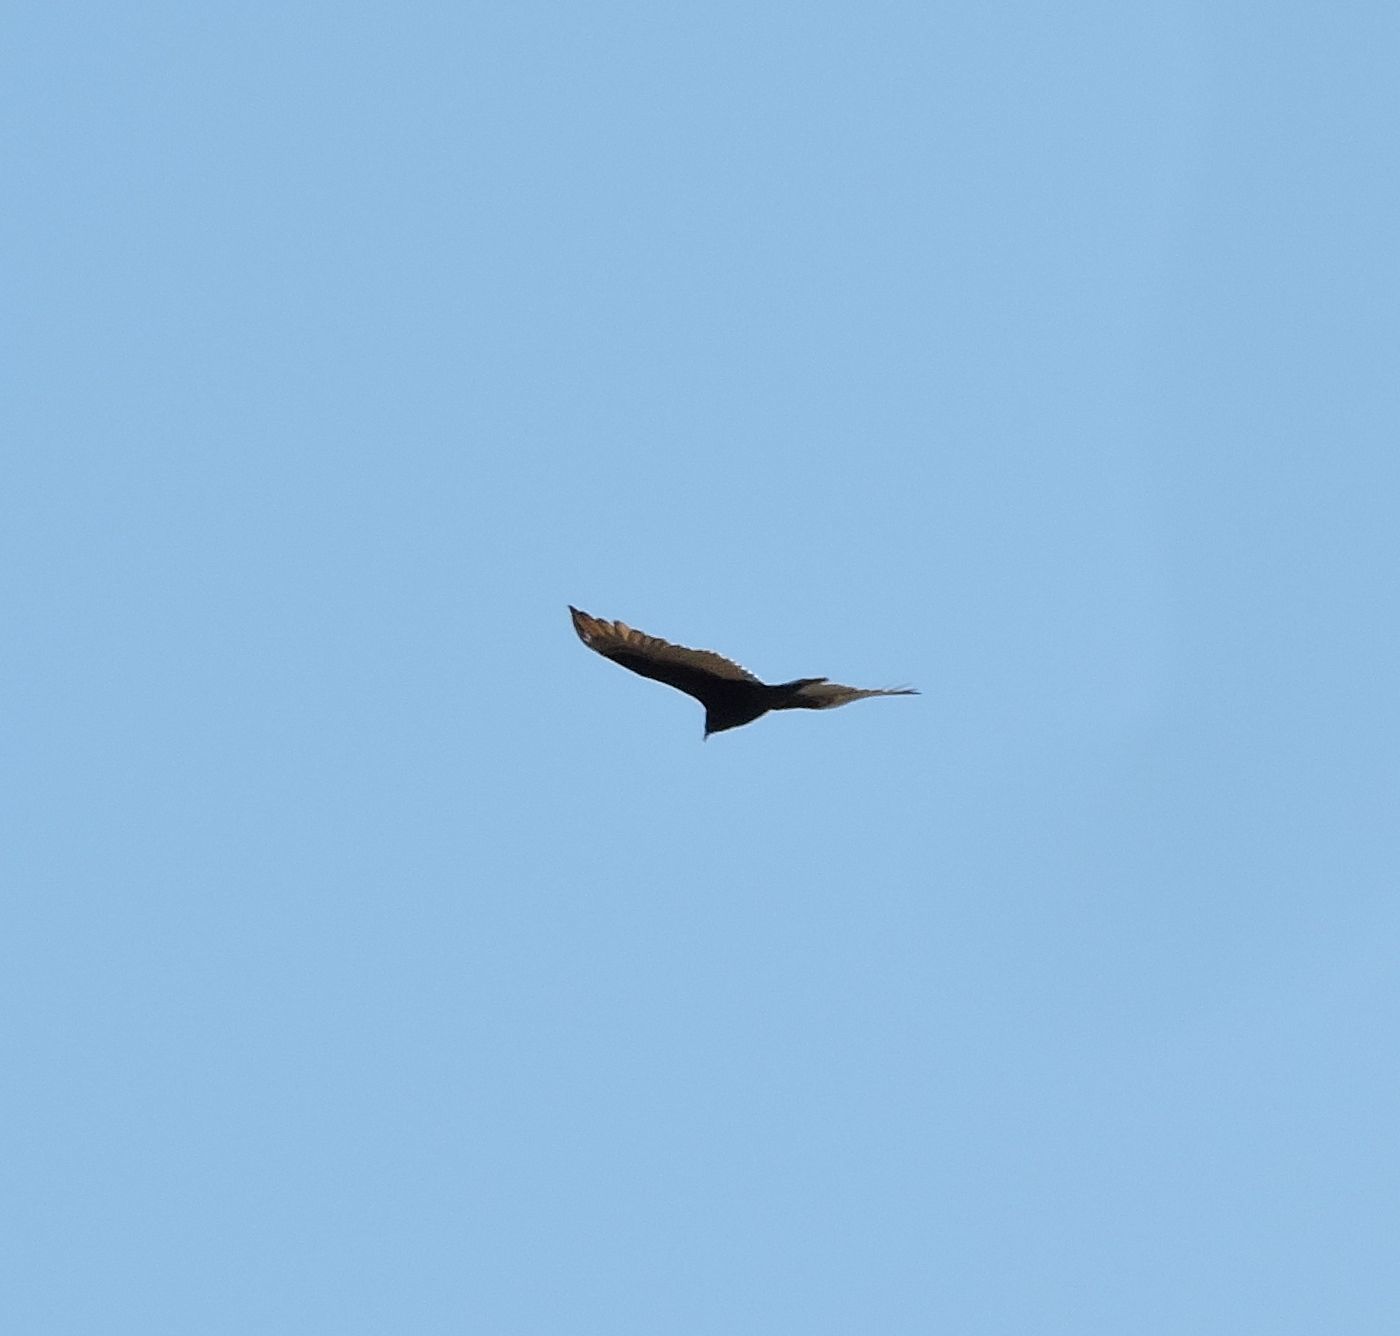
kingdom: Animalia
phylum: Chordata
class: Aves
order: Accipitriformes
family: Cathartidae
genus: Cathartes
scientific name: Cathartes aura
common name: Turkey vulture
